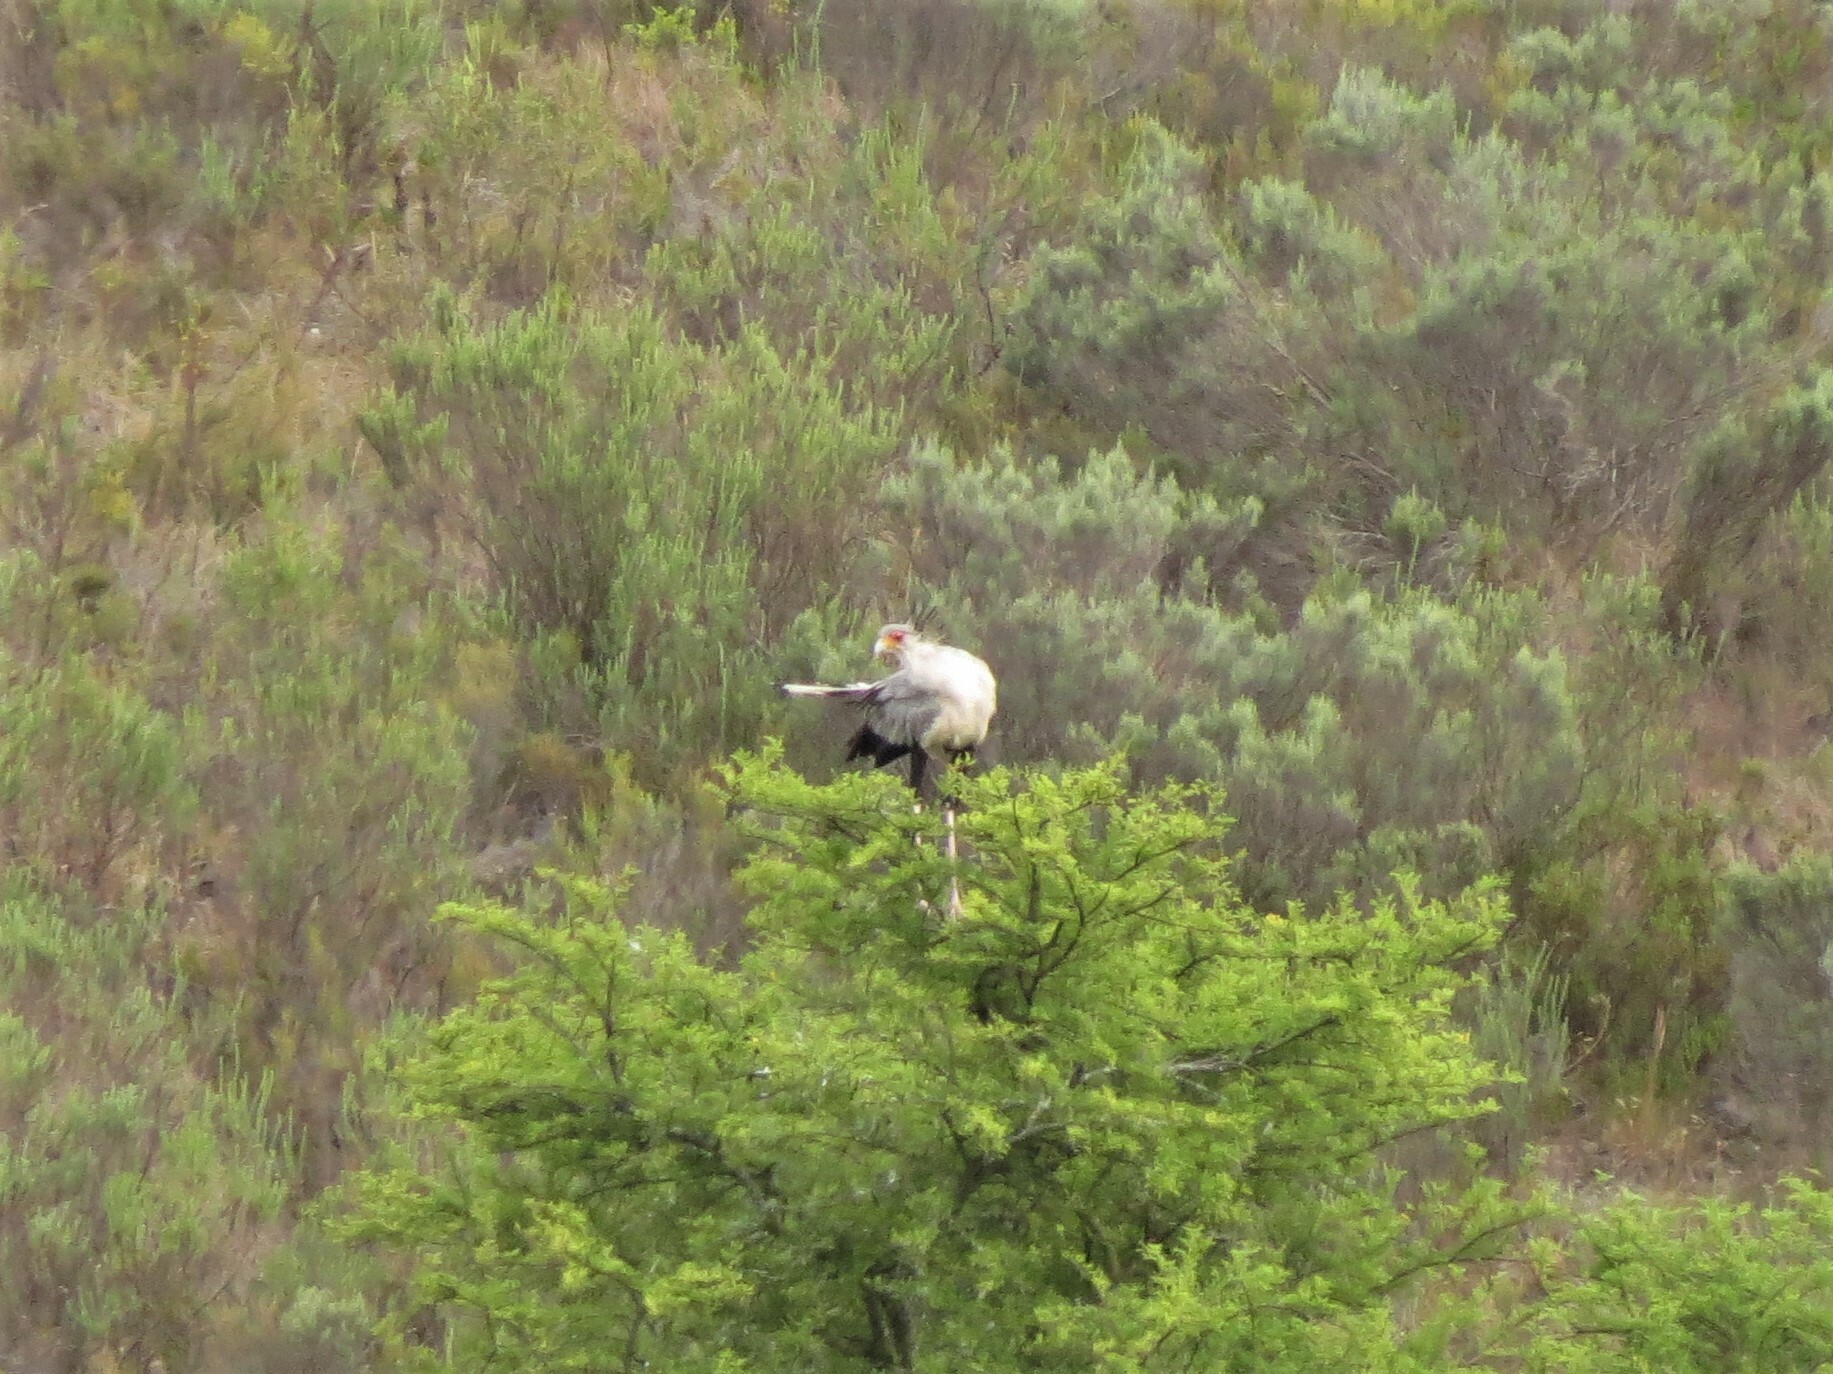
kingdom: Animalia
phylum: Chordata
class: Aves
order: Accipitriformes
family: Sagittariidae
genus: Sagittarius
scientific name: Sagittarius serpentarius
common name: Secretarybird
